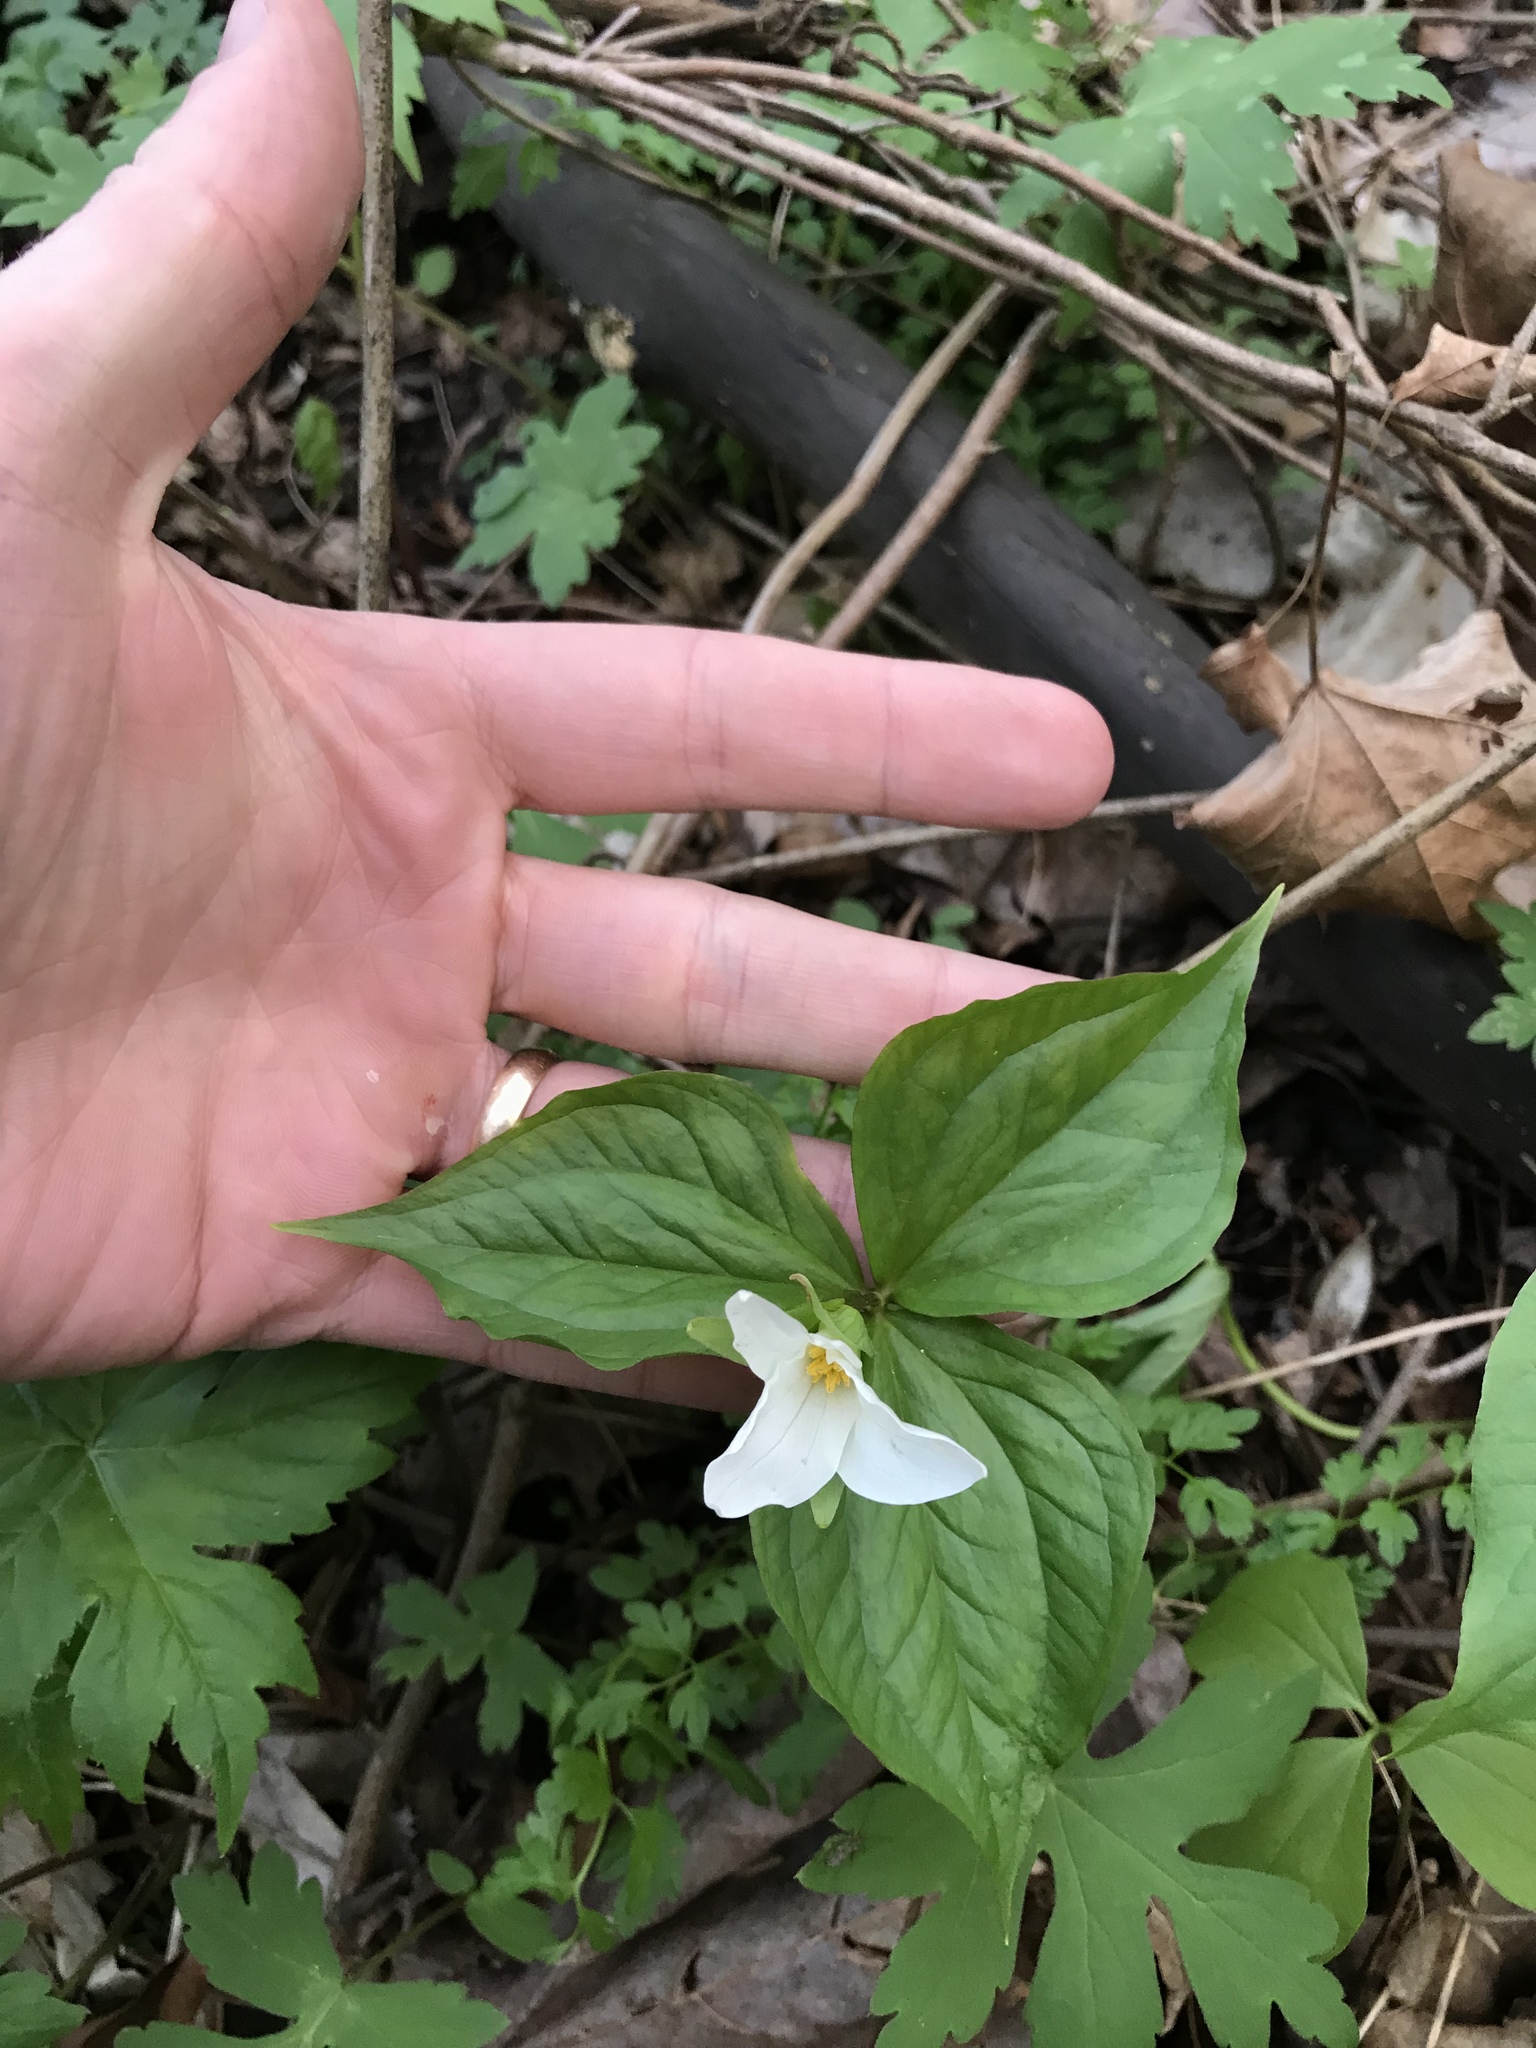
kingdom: Plantae
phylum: Tracheophyta
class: Liliopsida
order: Liliales
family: Melanthiaceae
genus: Trillium
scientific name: Trillium grandiflorum
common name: Great white trillium
